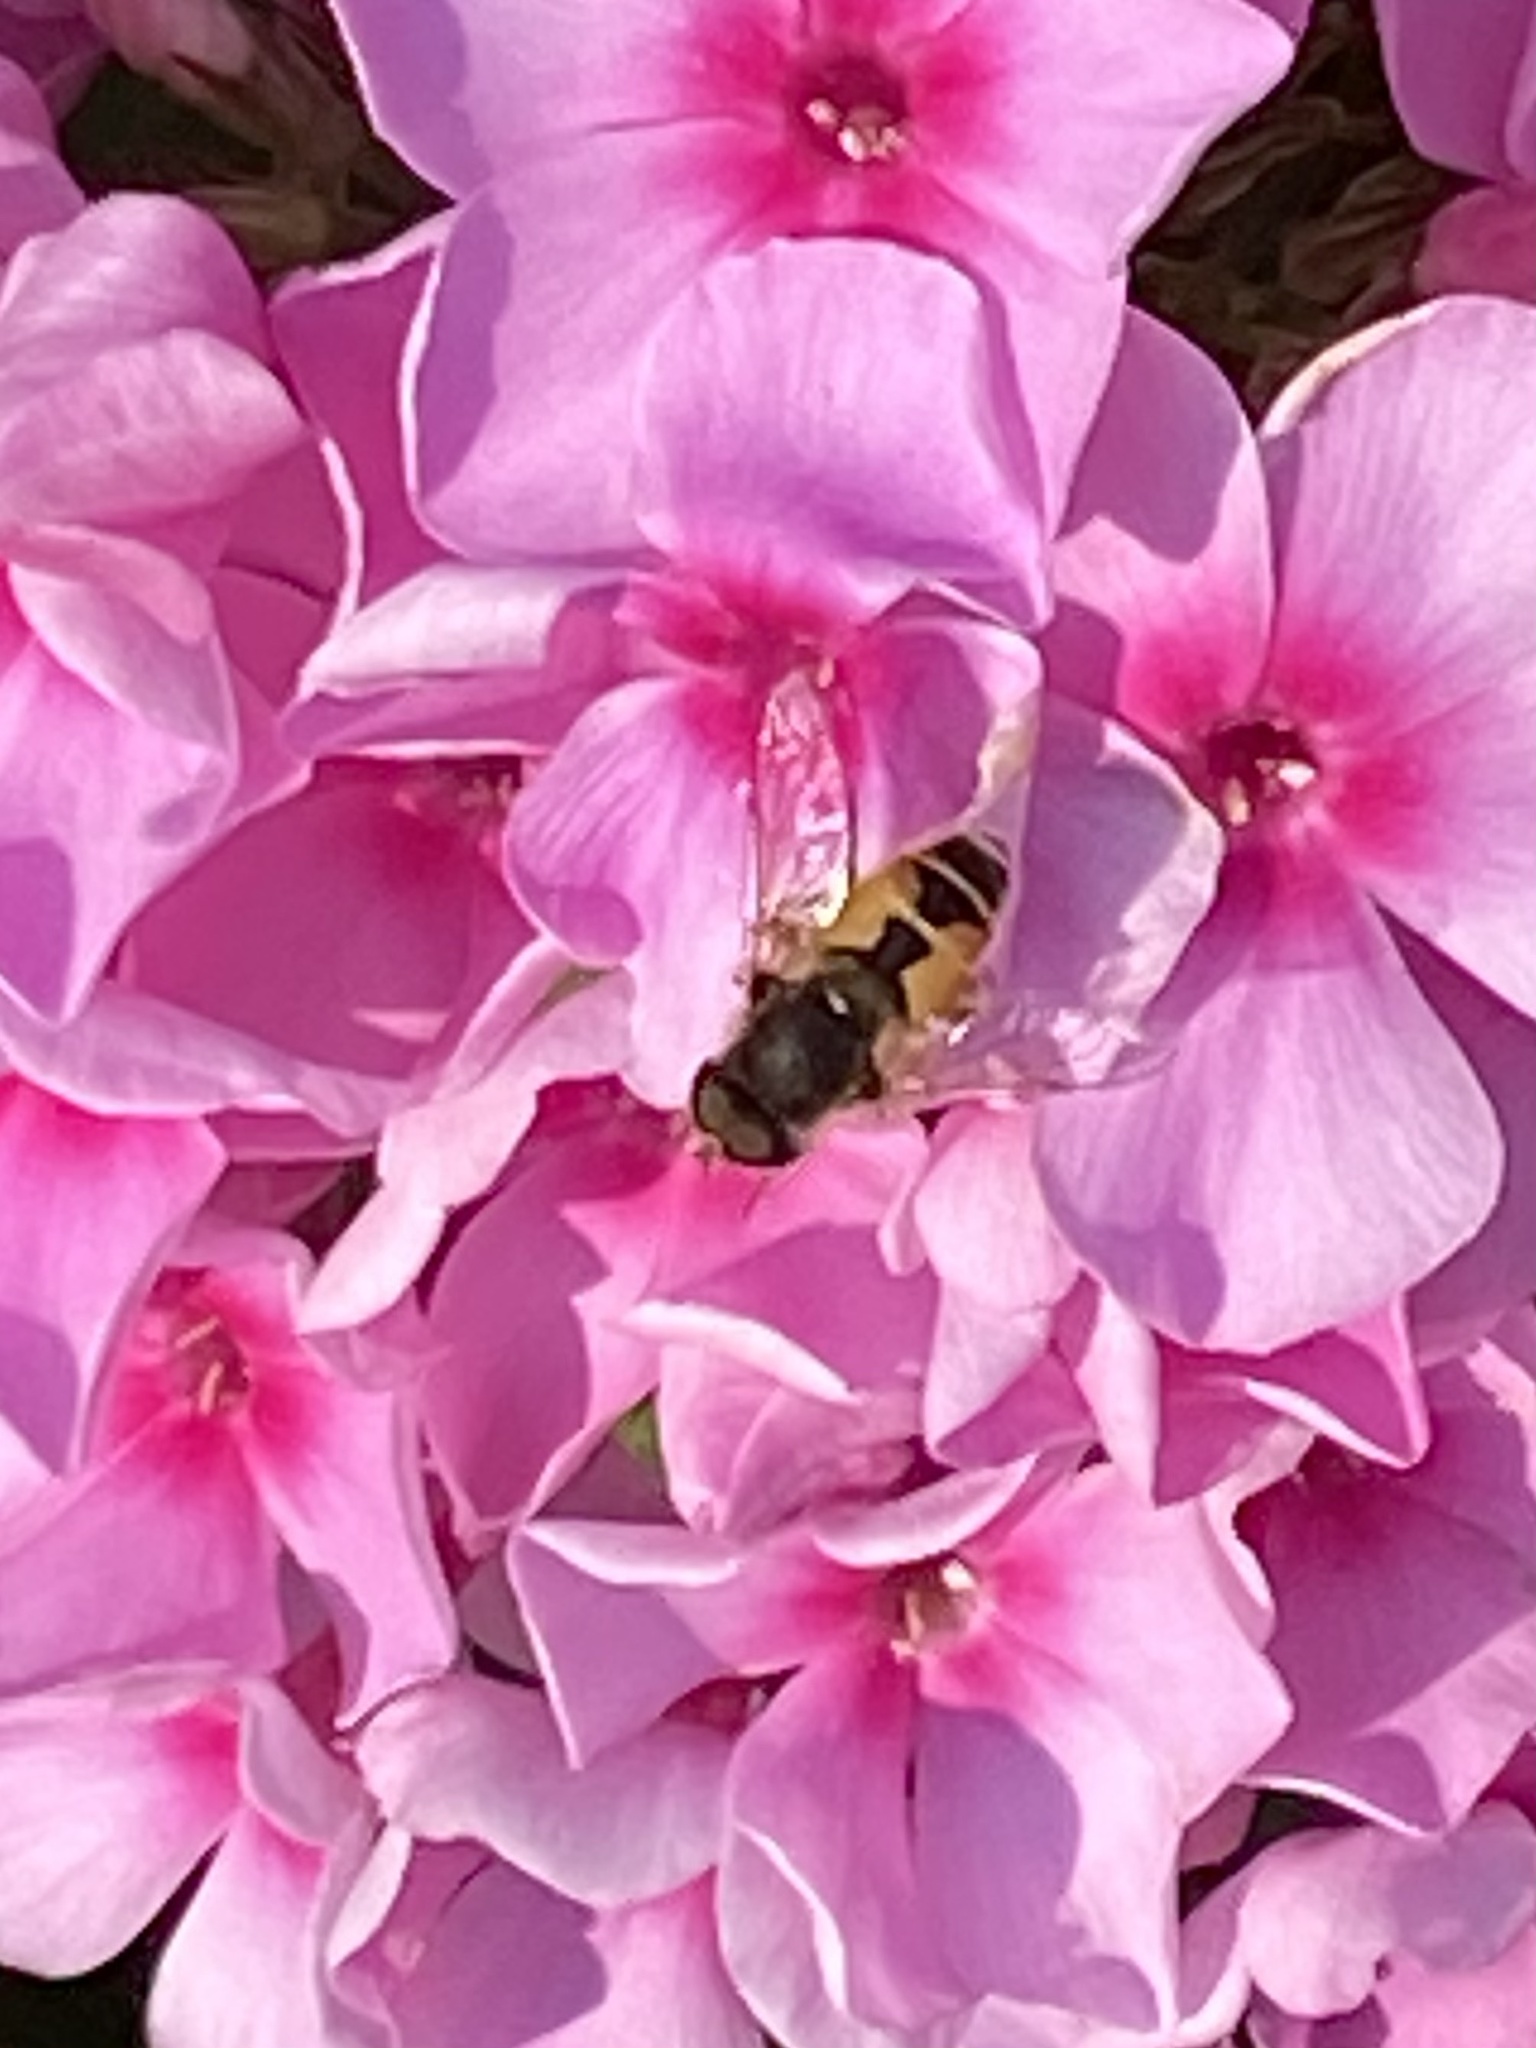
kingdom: Animalia
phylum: Arthropoda
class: Insecta
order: Diptera
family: Syrphidae
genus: Eristalis
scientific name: Eristalis arbustorum
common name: Hover fly
